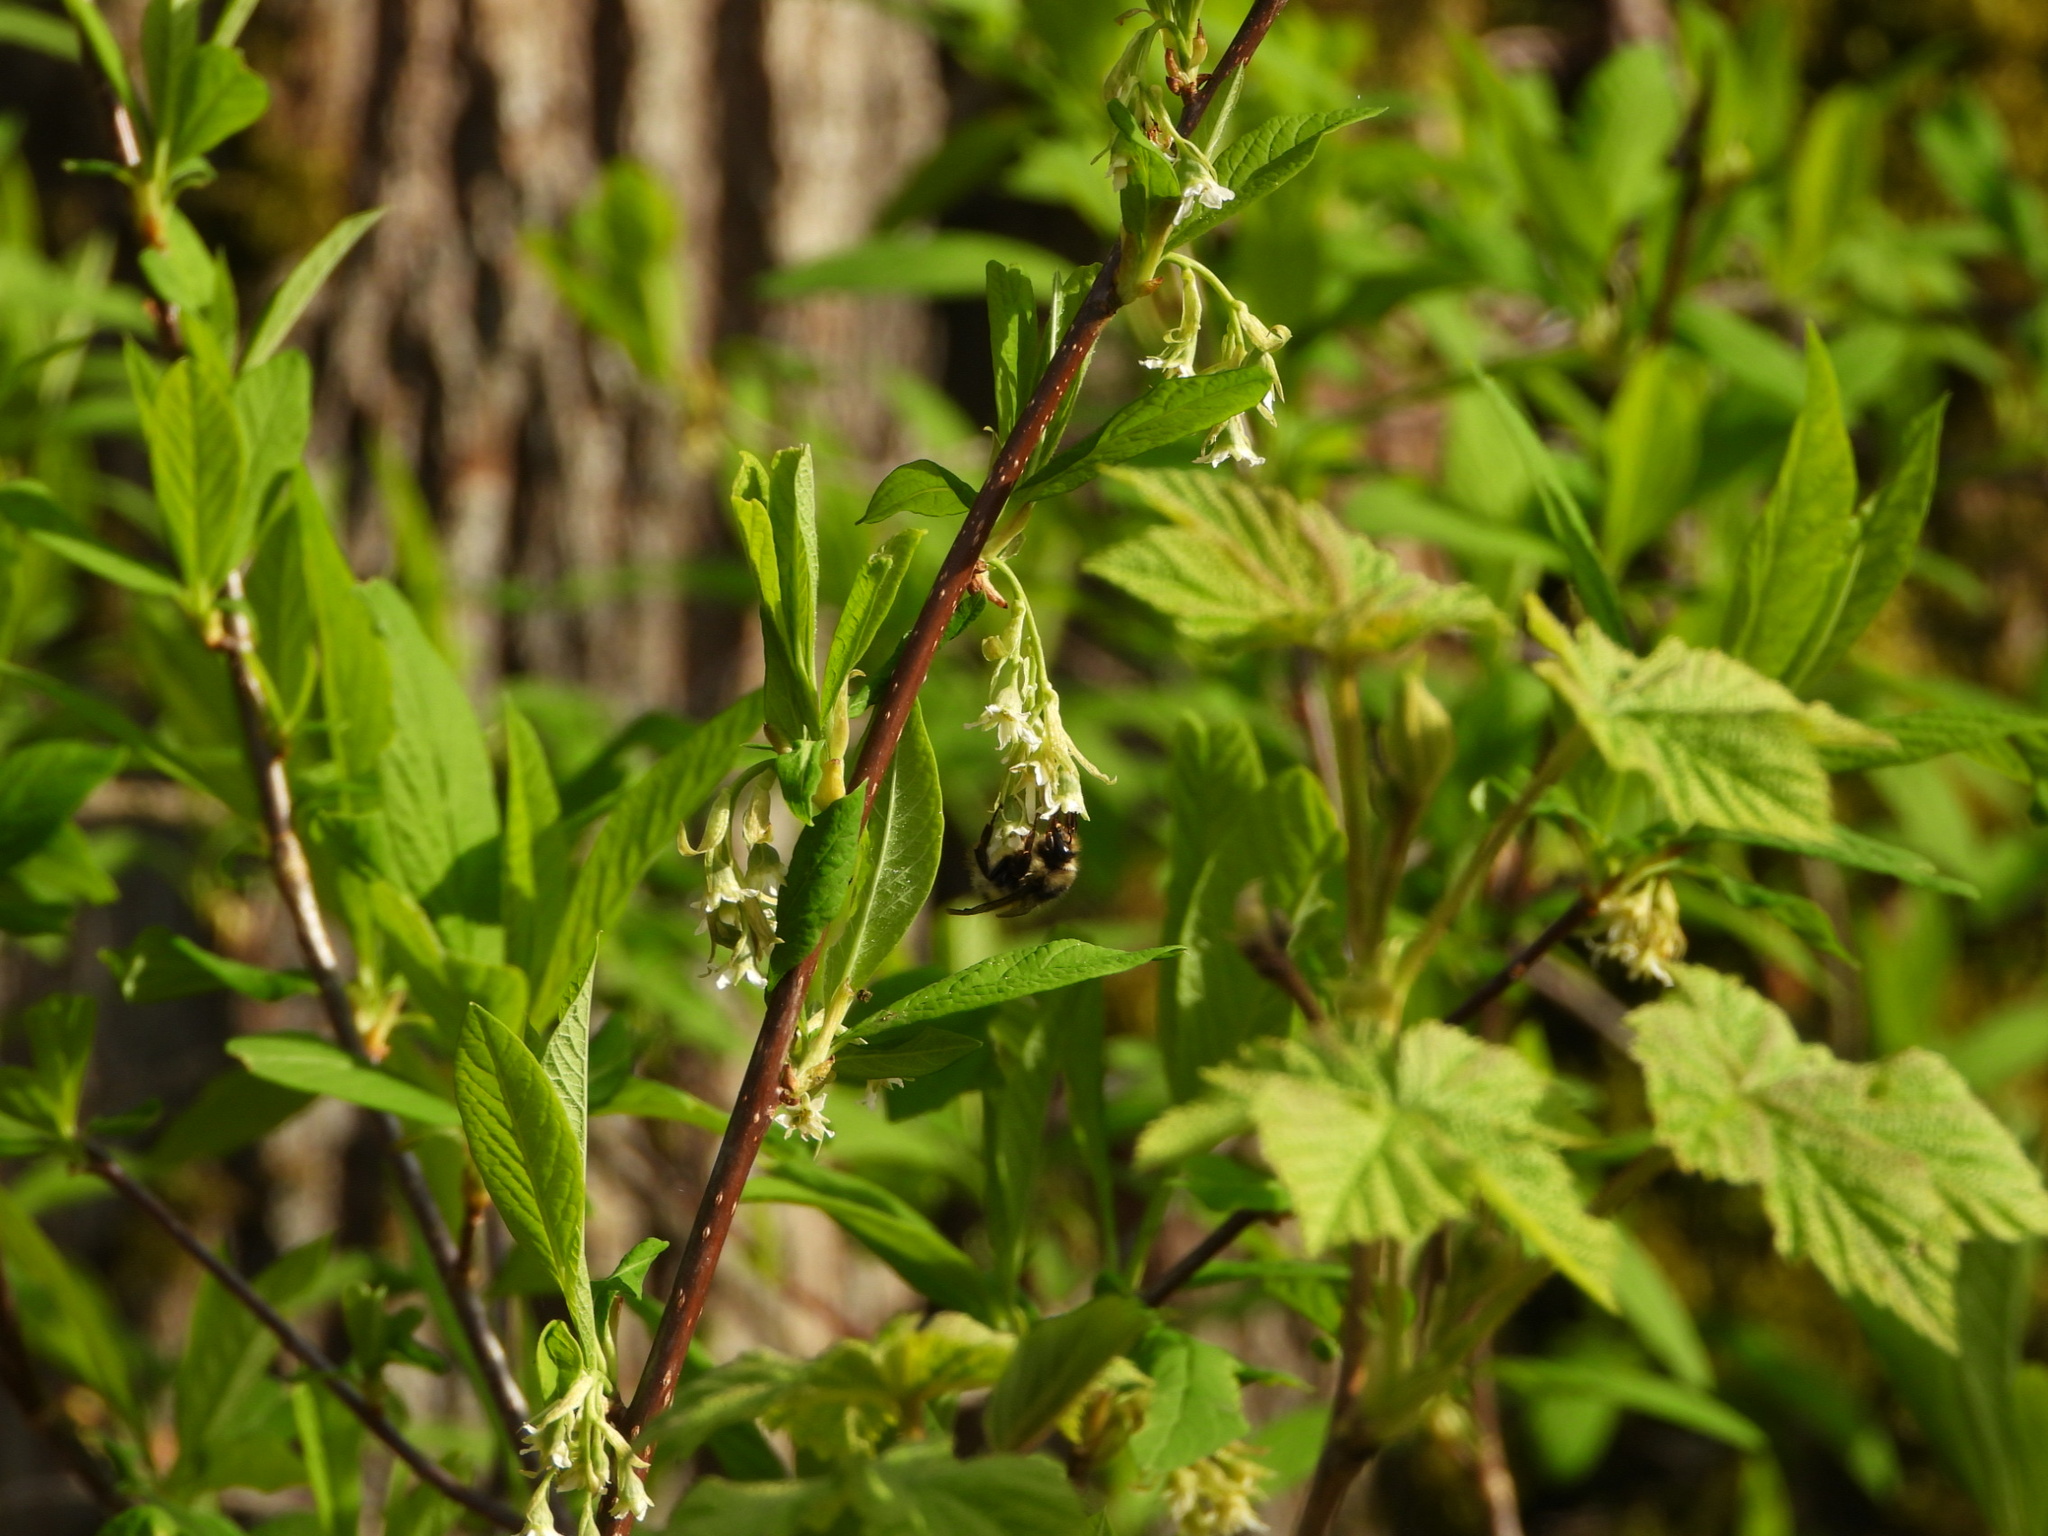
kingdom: Plantae
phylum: Tracheophyta
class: Magnoliopsida
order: Rosales
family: Rosaceae
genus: Oemleria
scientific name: Oemleria cerasiformis
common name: Osoberry
